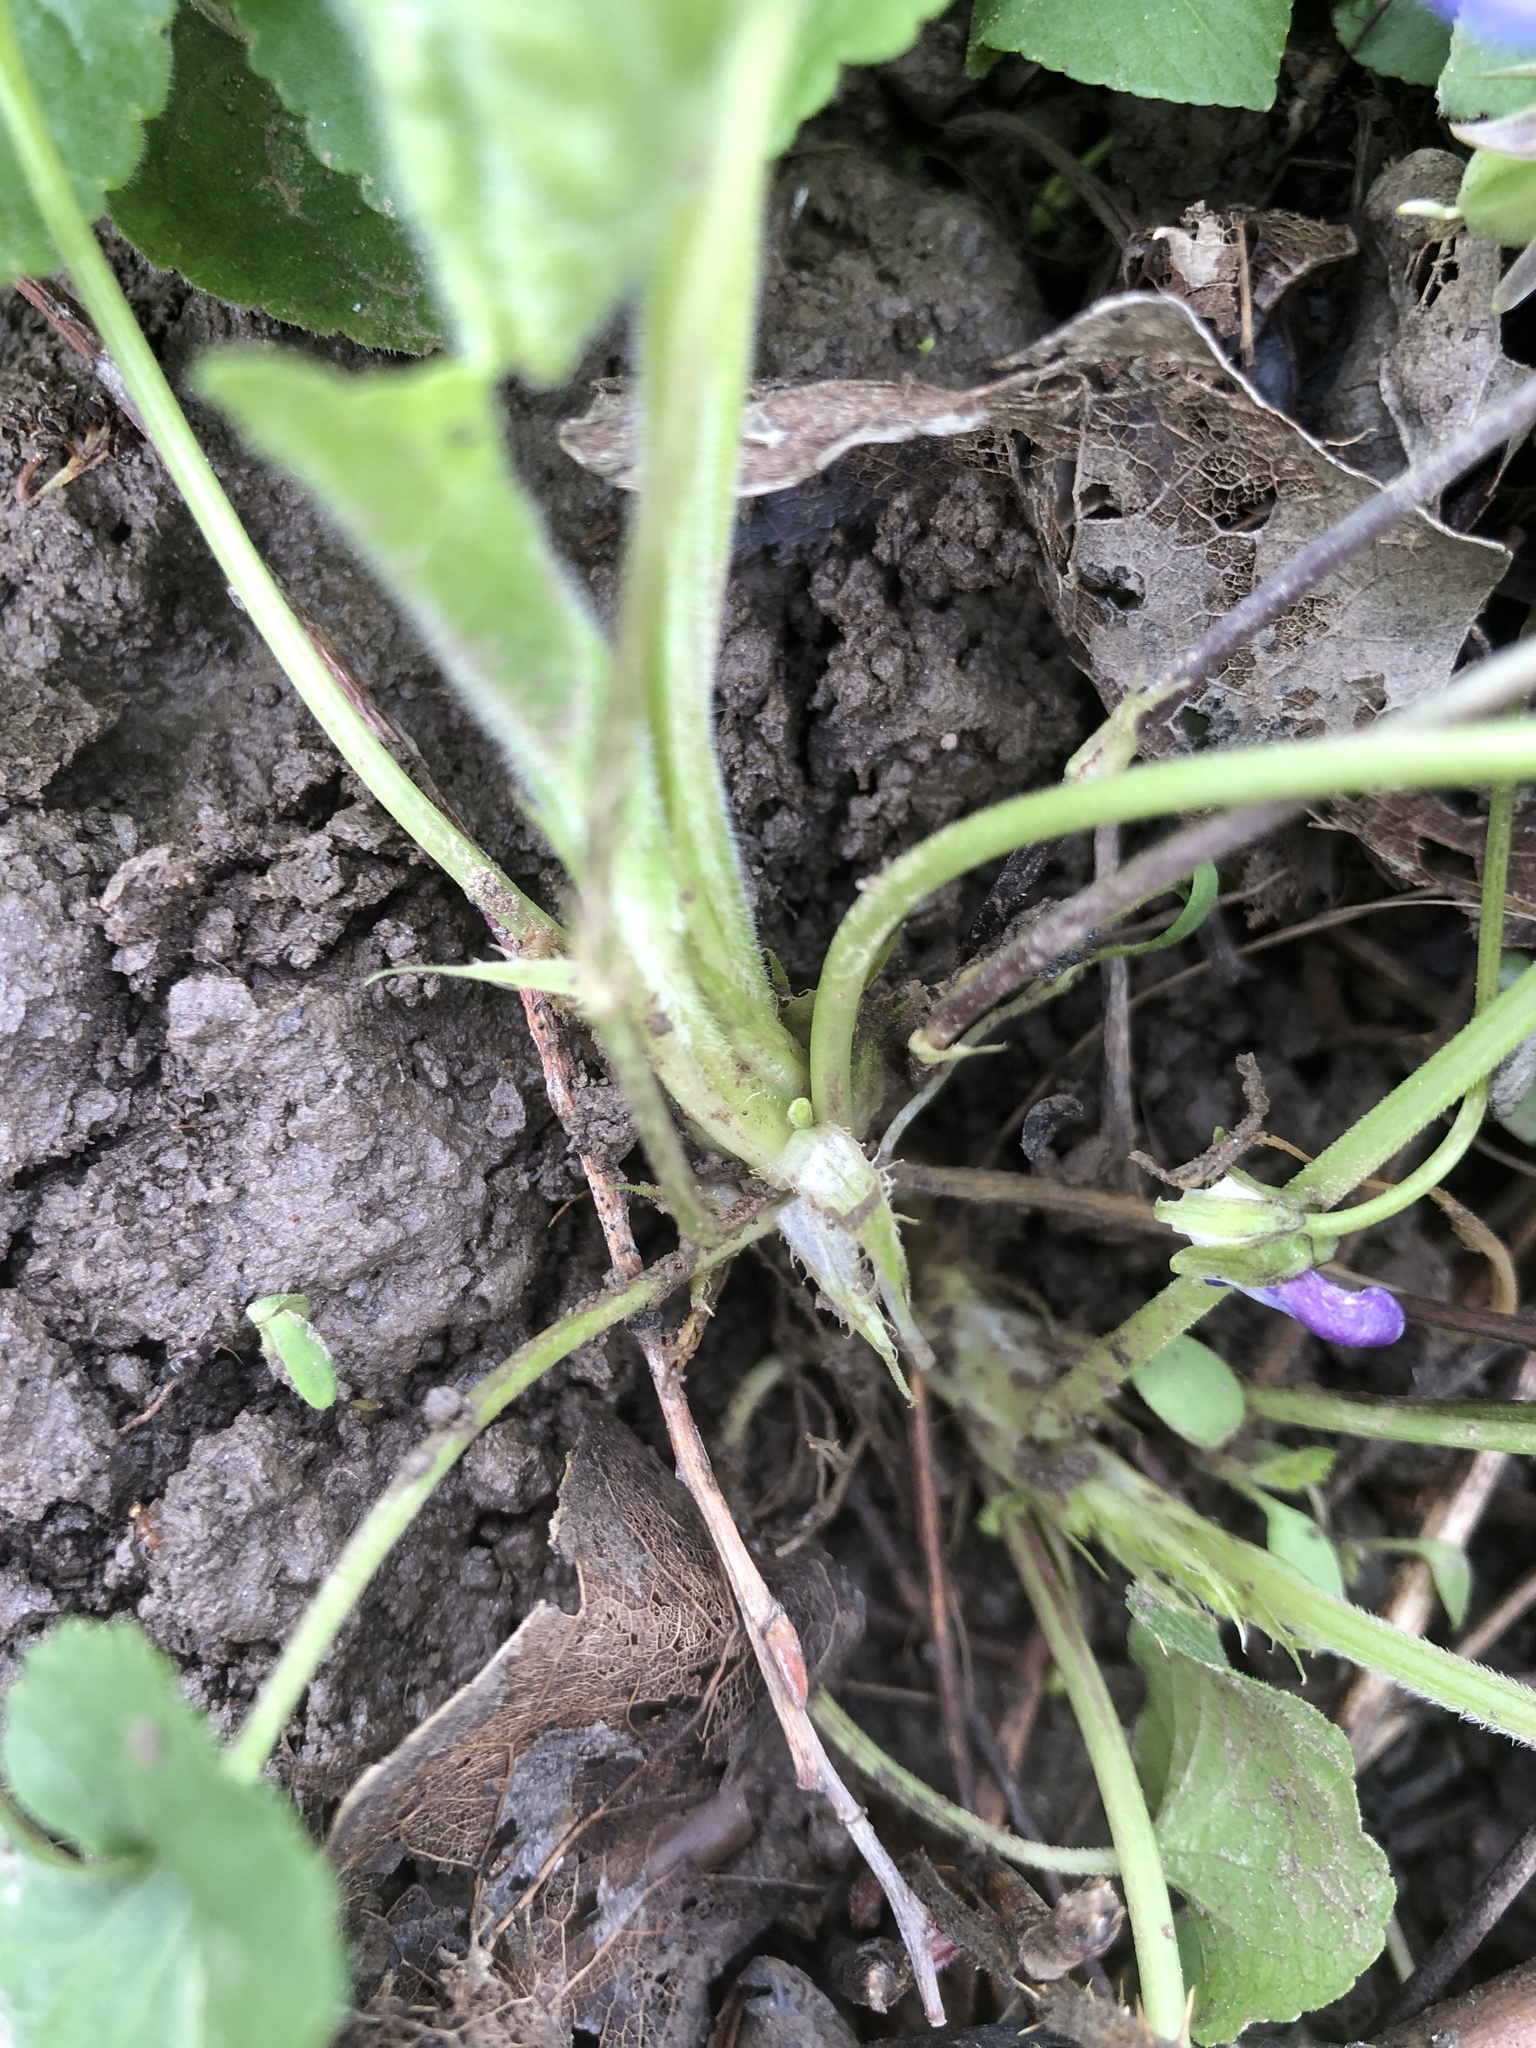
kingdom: Plantae
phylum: Tracheophyta
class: Magnoliopsida
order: Malpighiales
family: Violaceae
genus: Viola
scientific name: Viola suavis
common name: Russian violet
